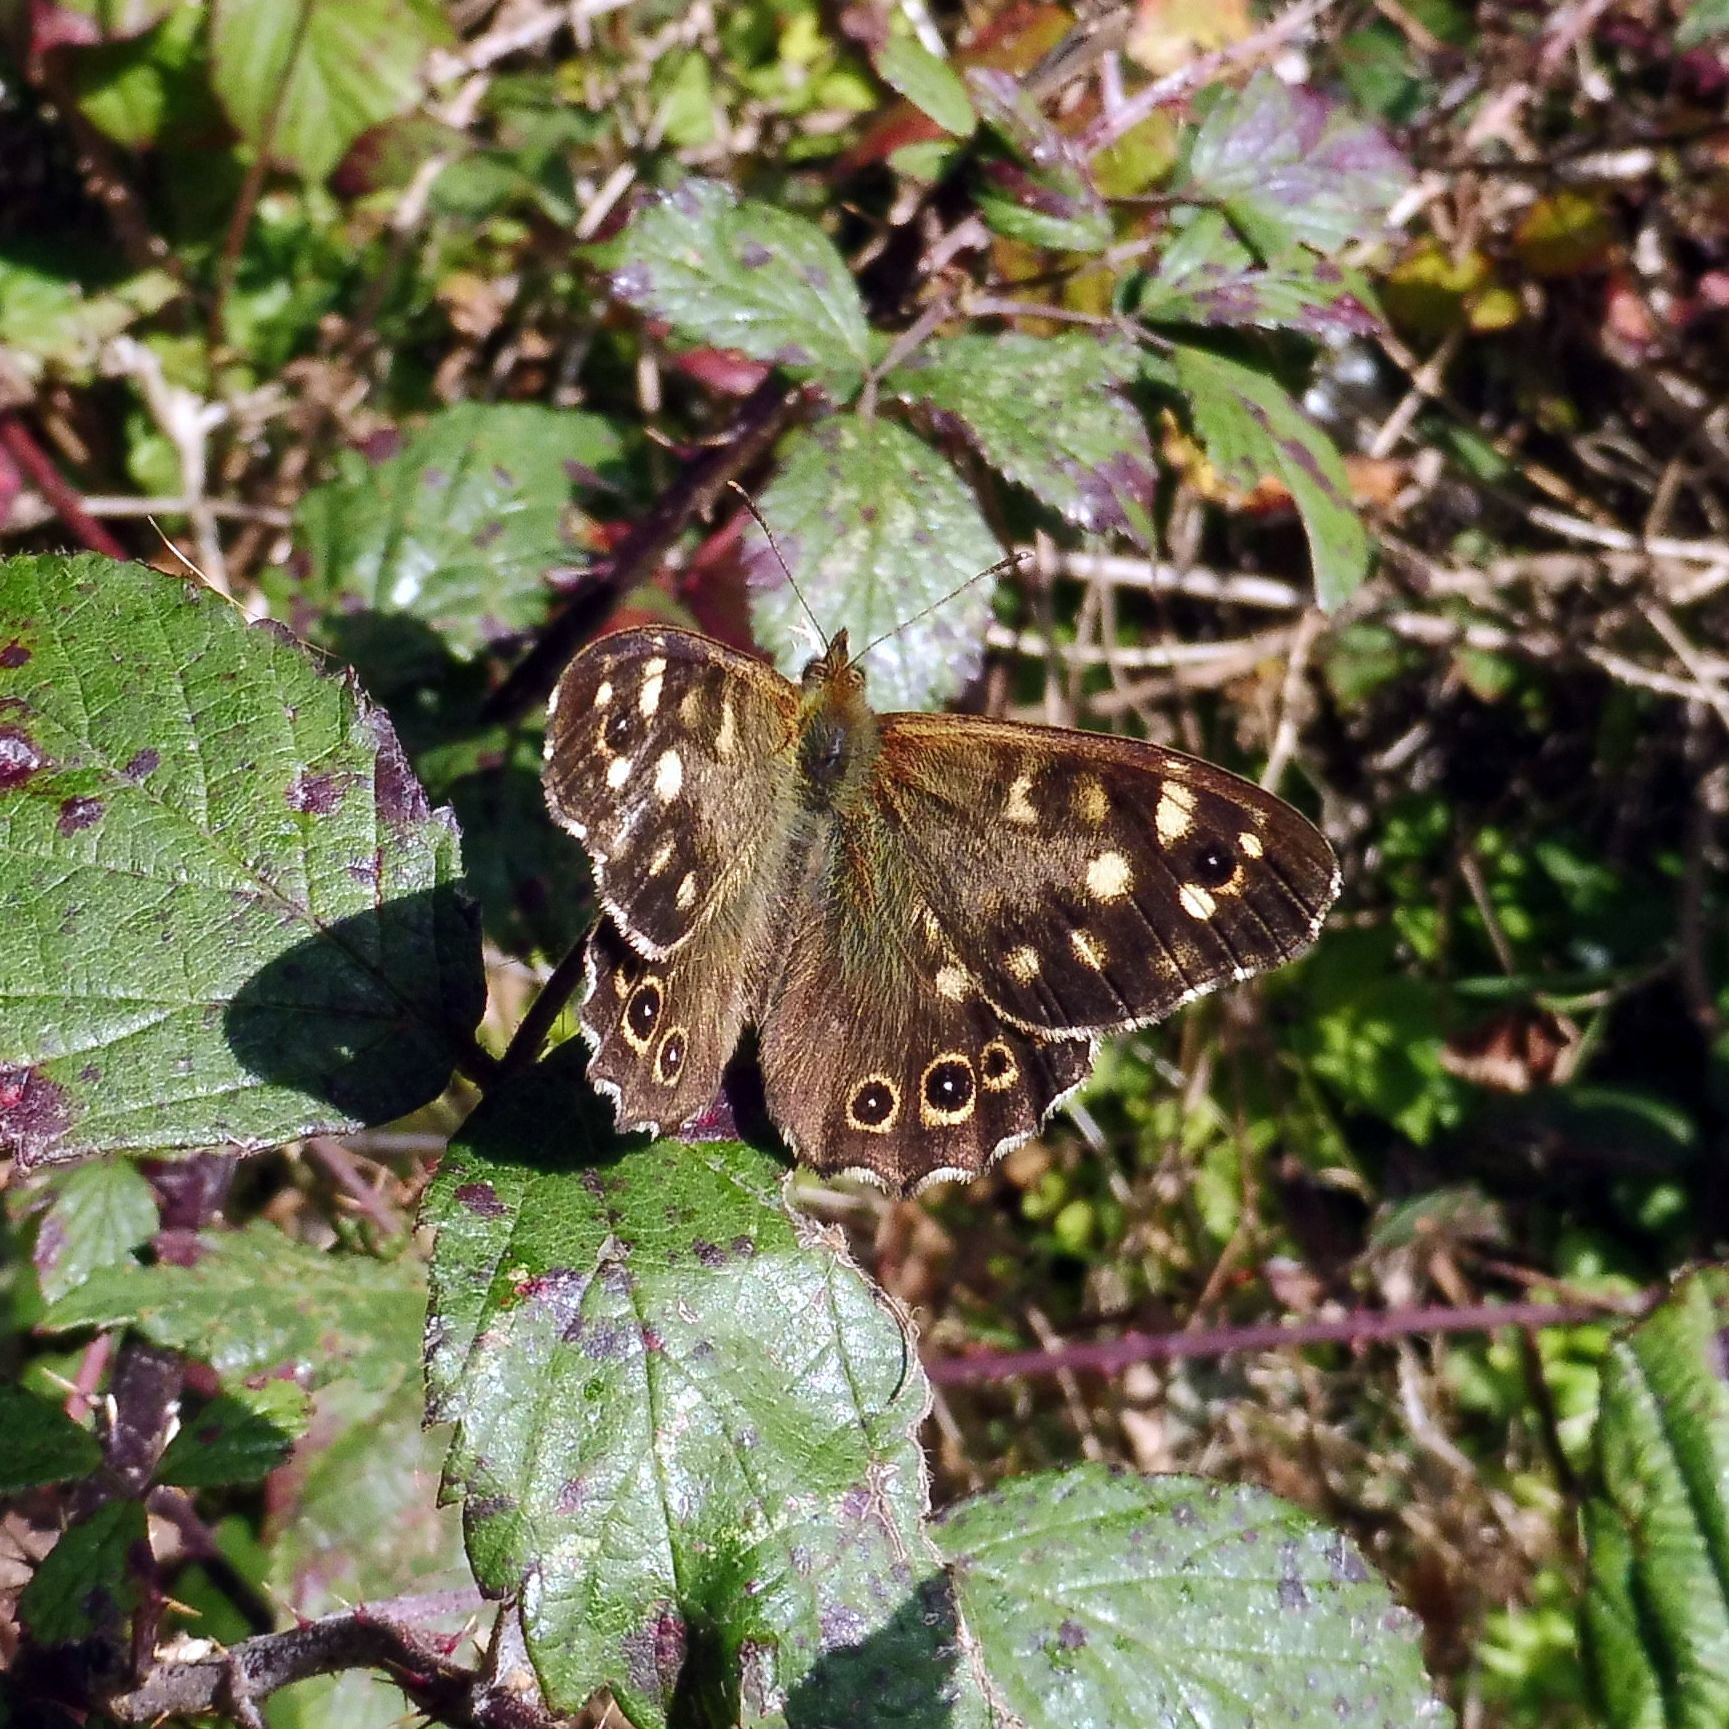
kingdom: Animalia
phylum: Arthropoda
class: Insecta
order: Lepidoptera
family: Nymphalidae
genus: Pararge
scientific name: Pararge aegeria
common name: Speckled wood
